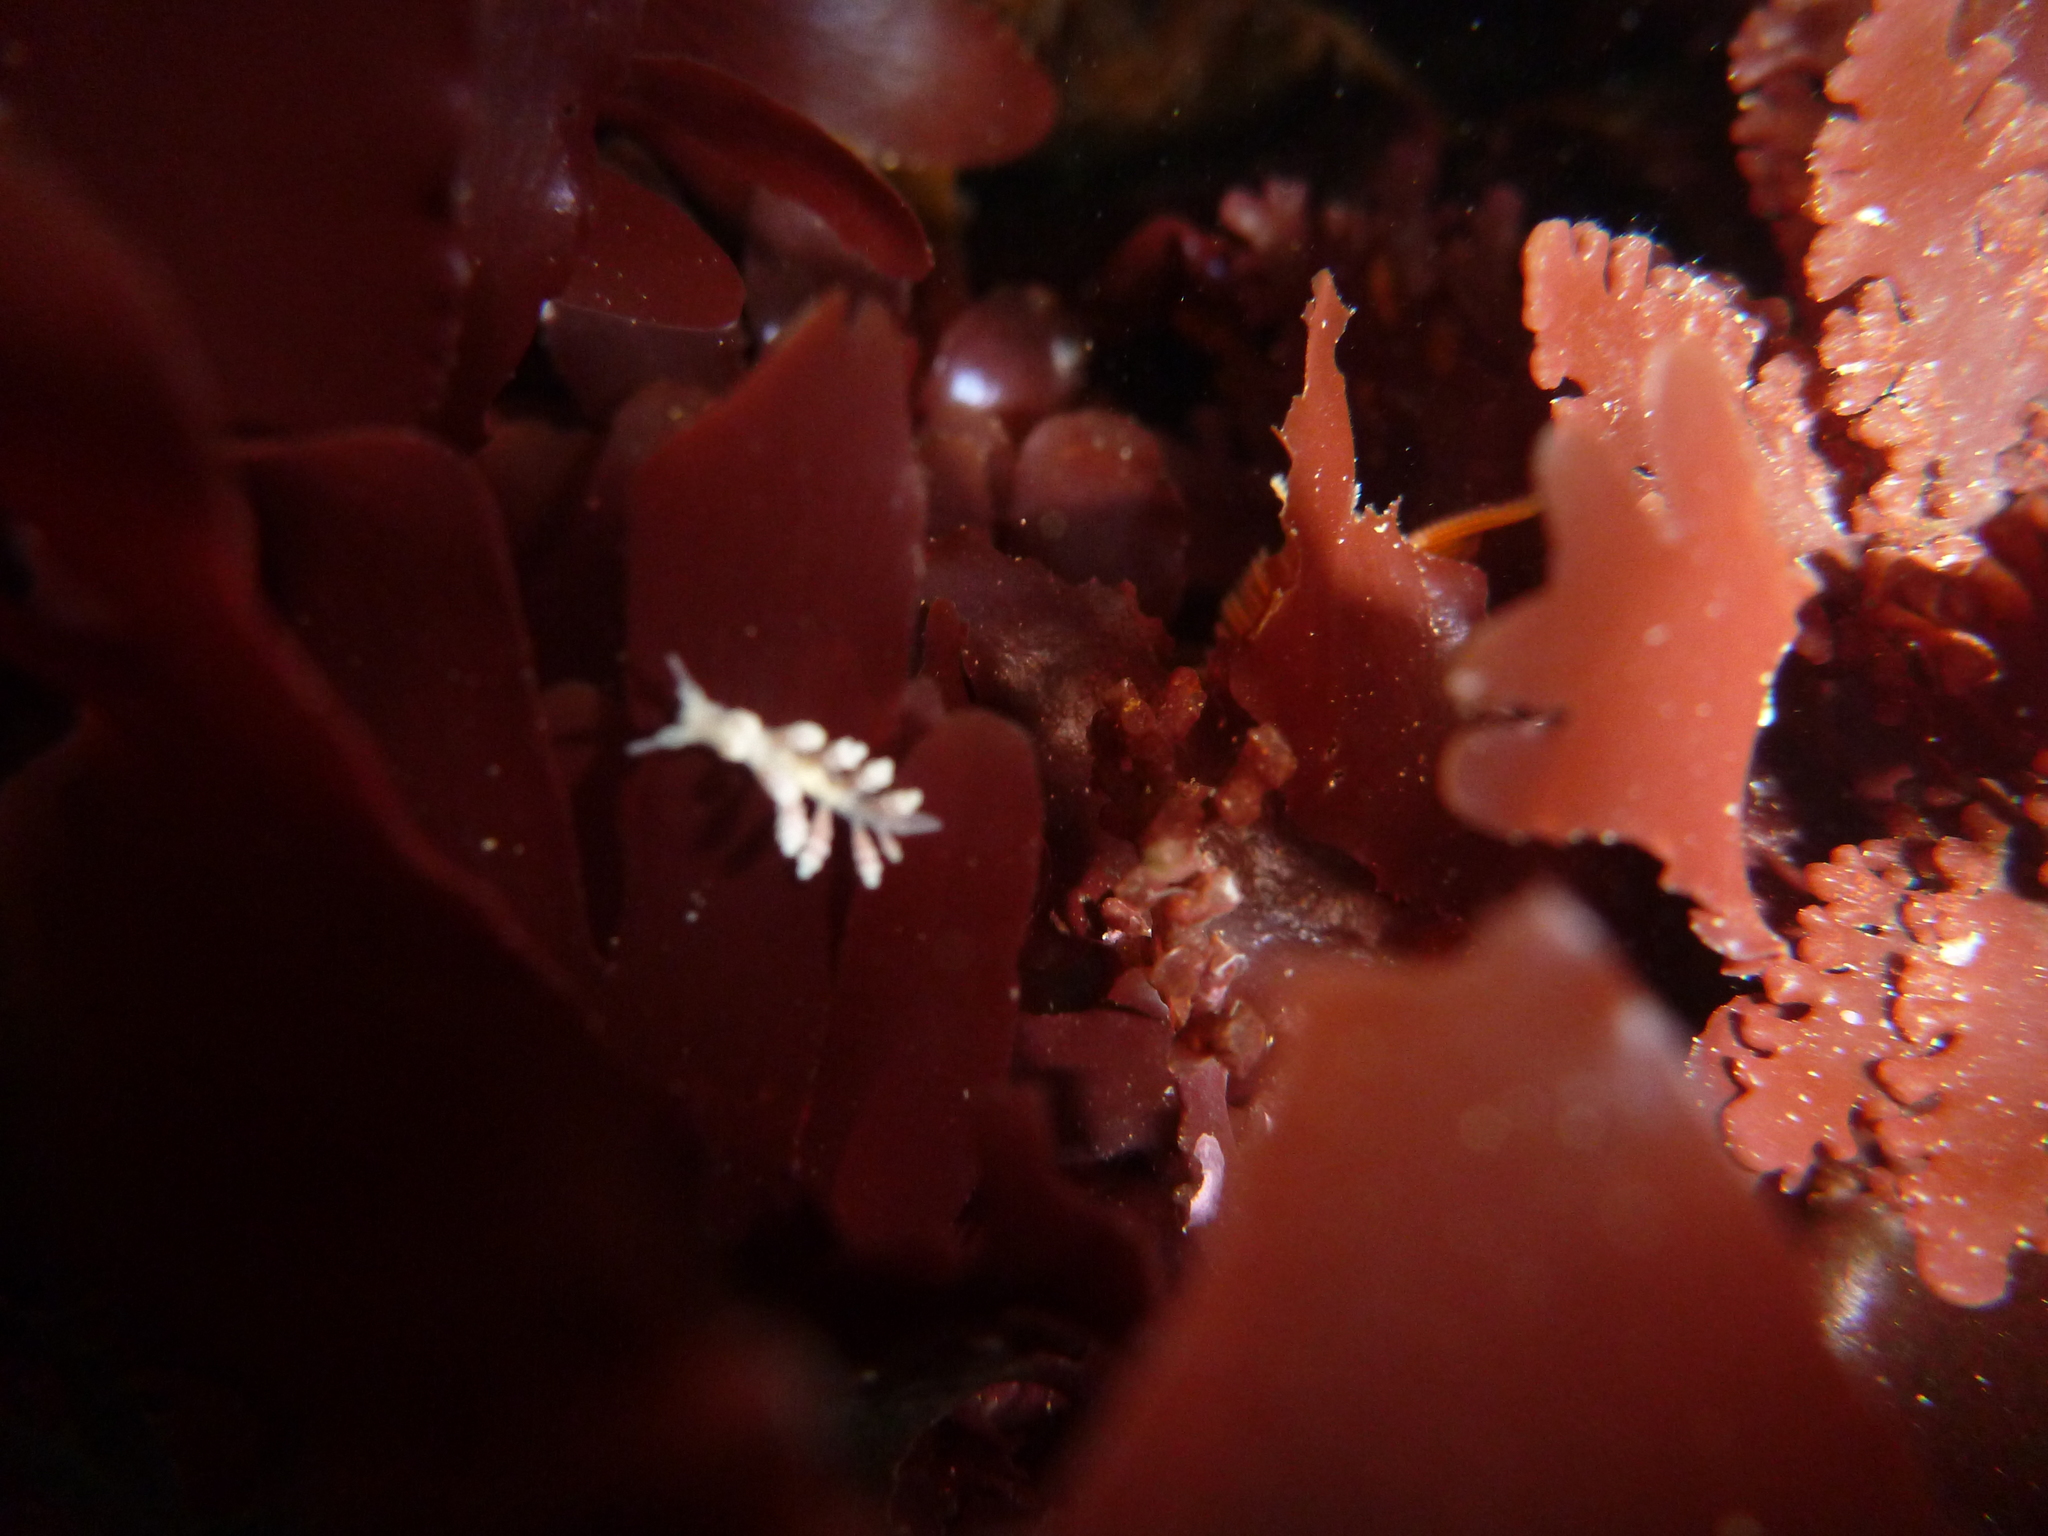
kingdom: Animalia
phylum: Mollusca
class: Gastropoda
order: Nudibranchia
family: Dotidae
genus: Doto
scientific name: Doto amyra
